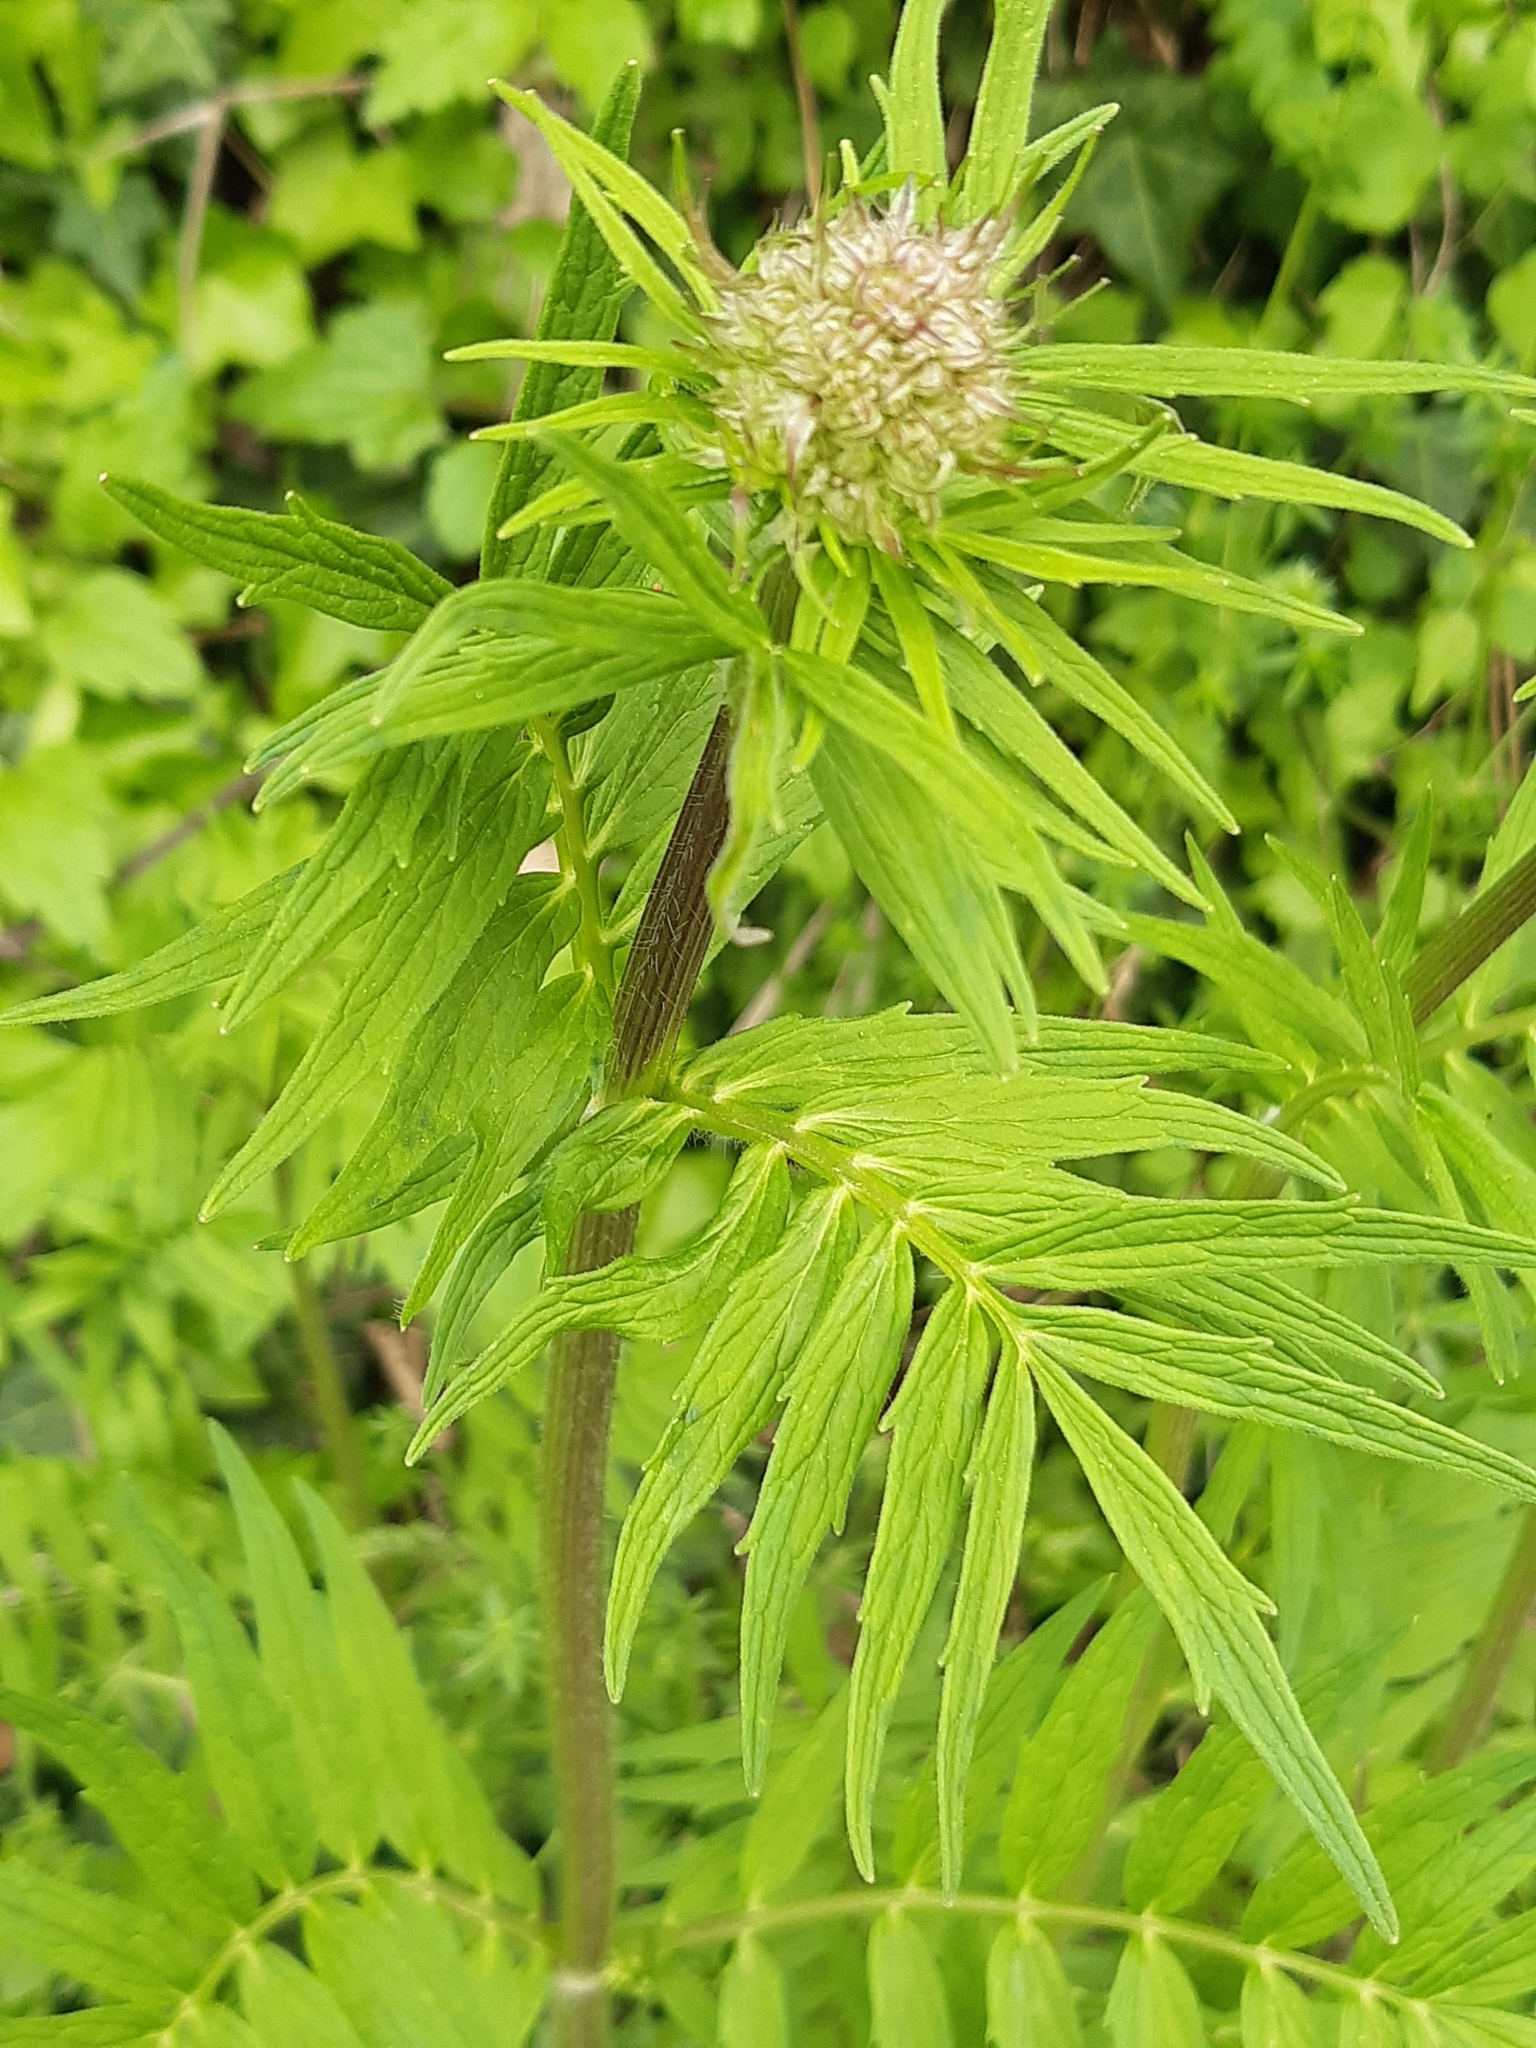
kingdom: Plantae
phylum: Tracheophyta
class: Magnoliopsida
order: Dipsacales
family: Caprifoliaceae
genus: Valeriana
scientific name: Valeriana officinalis
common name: Common valerian
